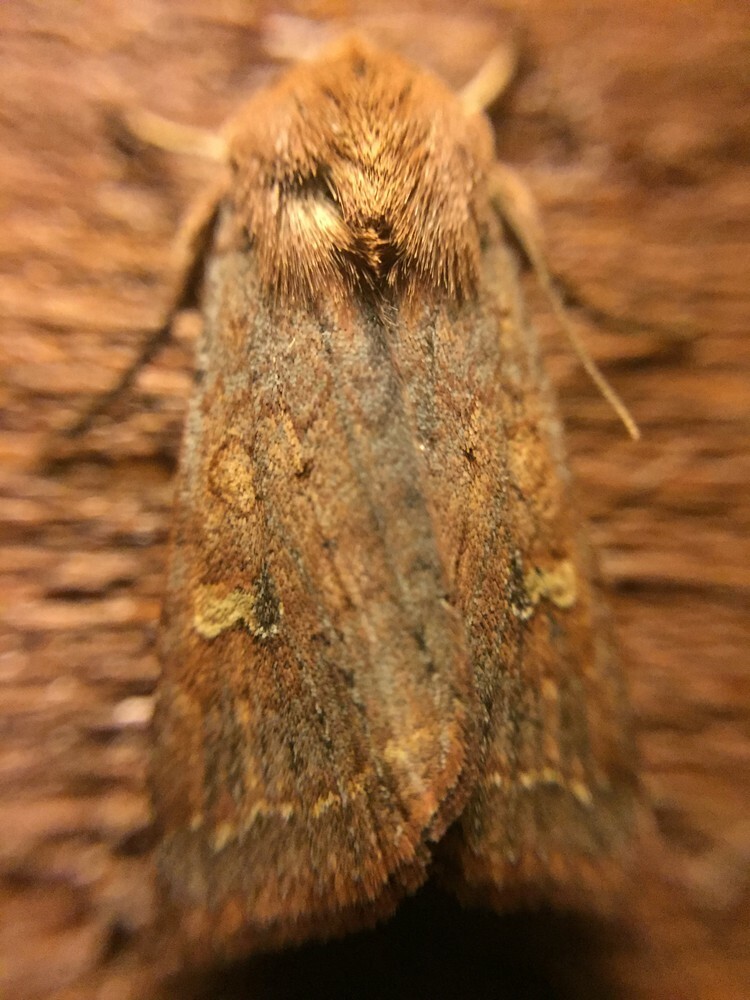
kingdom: Animalia
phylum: Arthropoda
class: Insecta
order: Lepidoptera
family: Noctuidae
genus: Diarsia
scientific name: Diarsia intermixta
